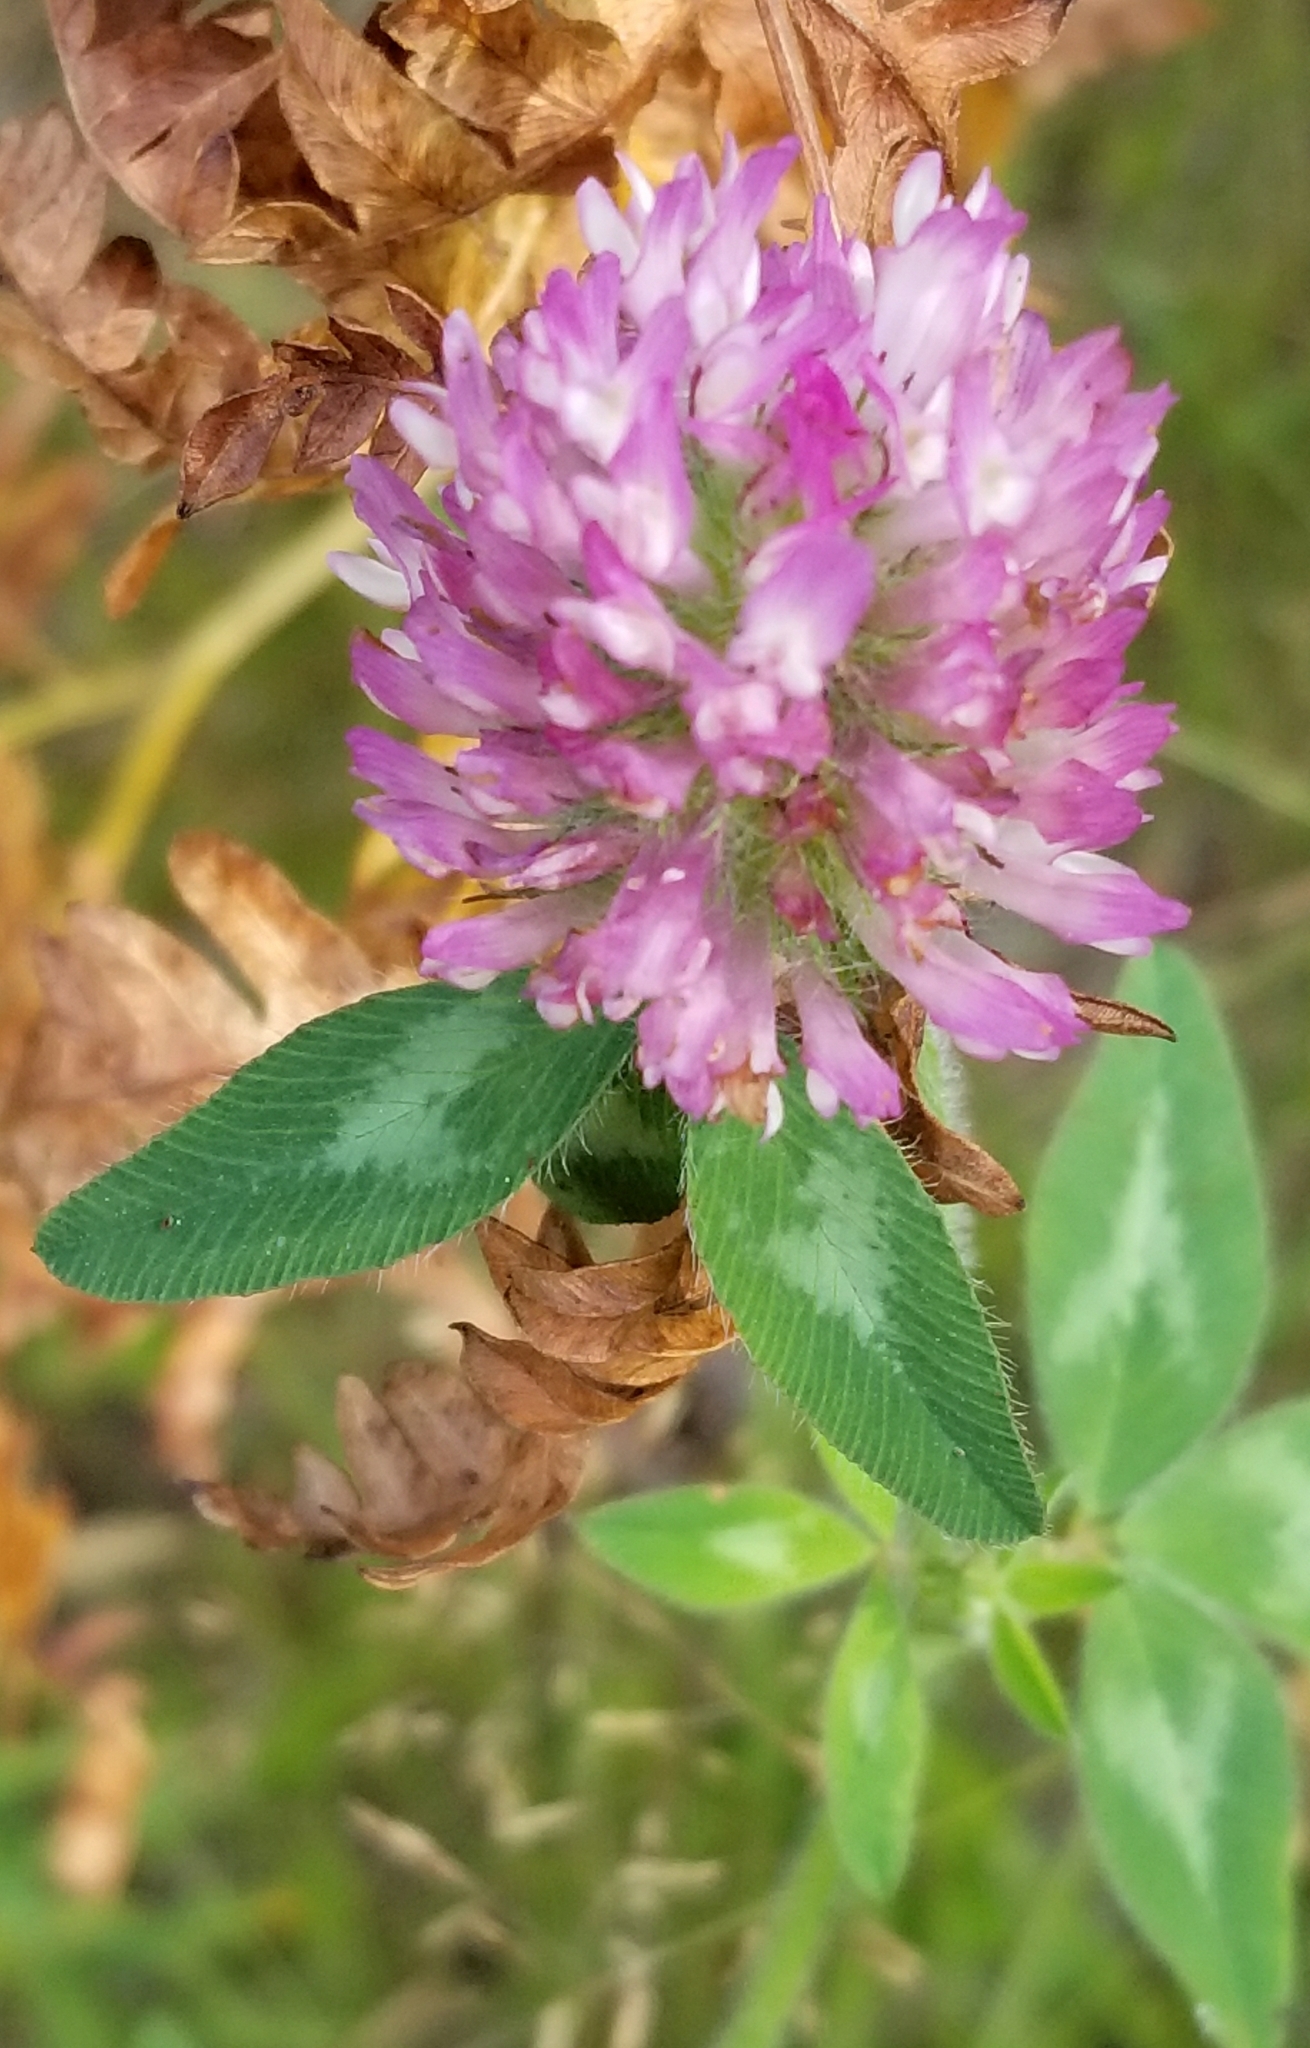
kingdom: Plantae
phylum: Tracheophyta
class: Magnoliopsida
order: Fabales
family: Fabaceae
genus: Trifolium
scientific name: Trifolium pratense
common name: Red clover
